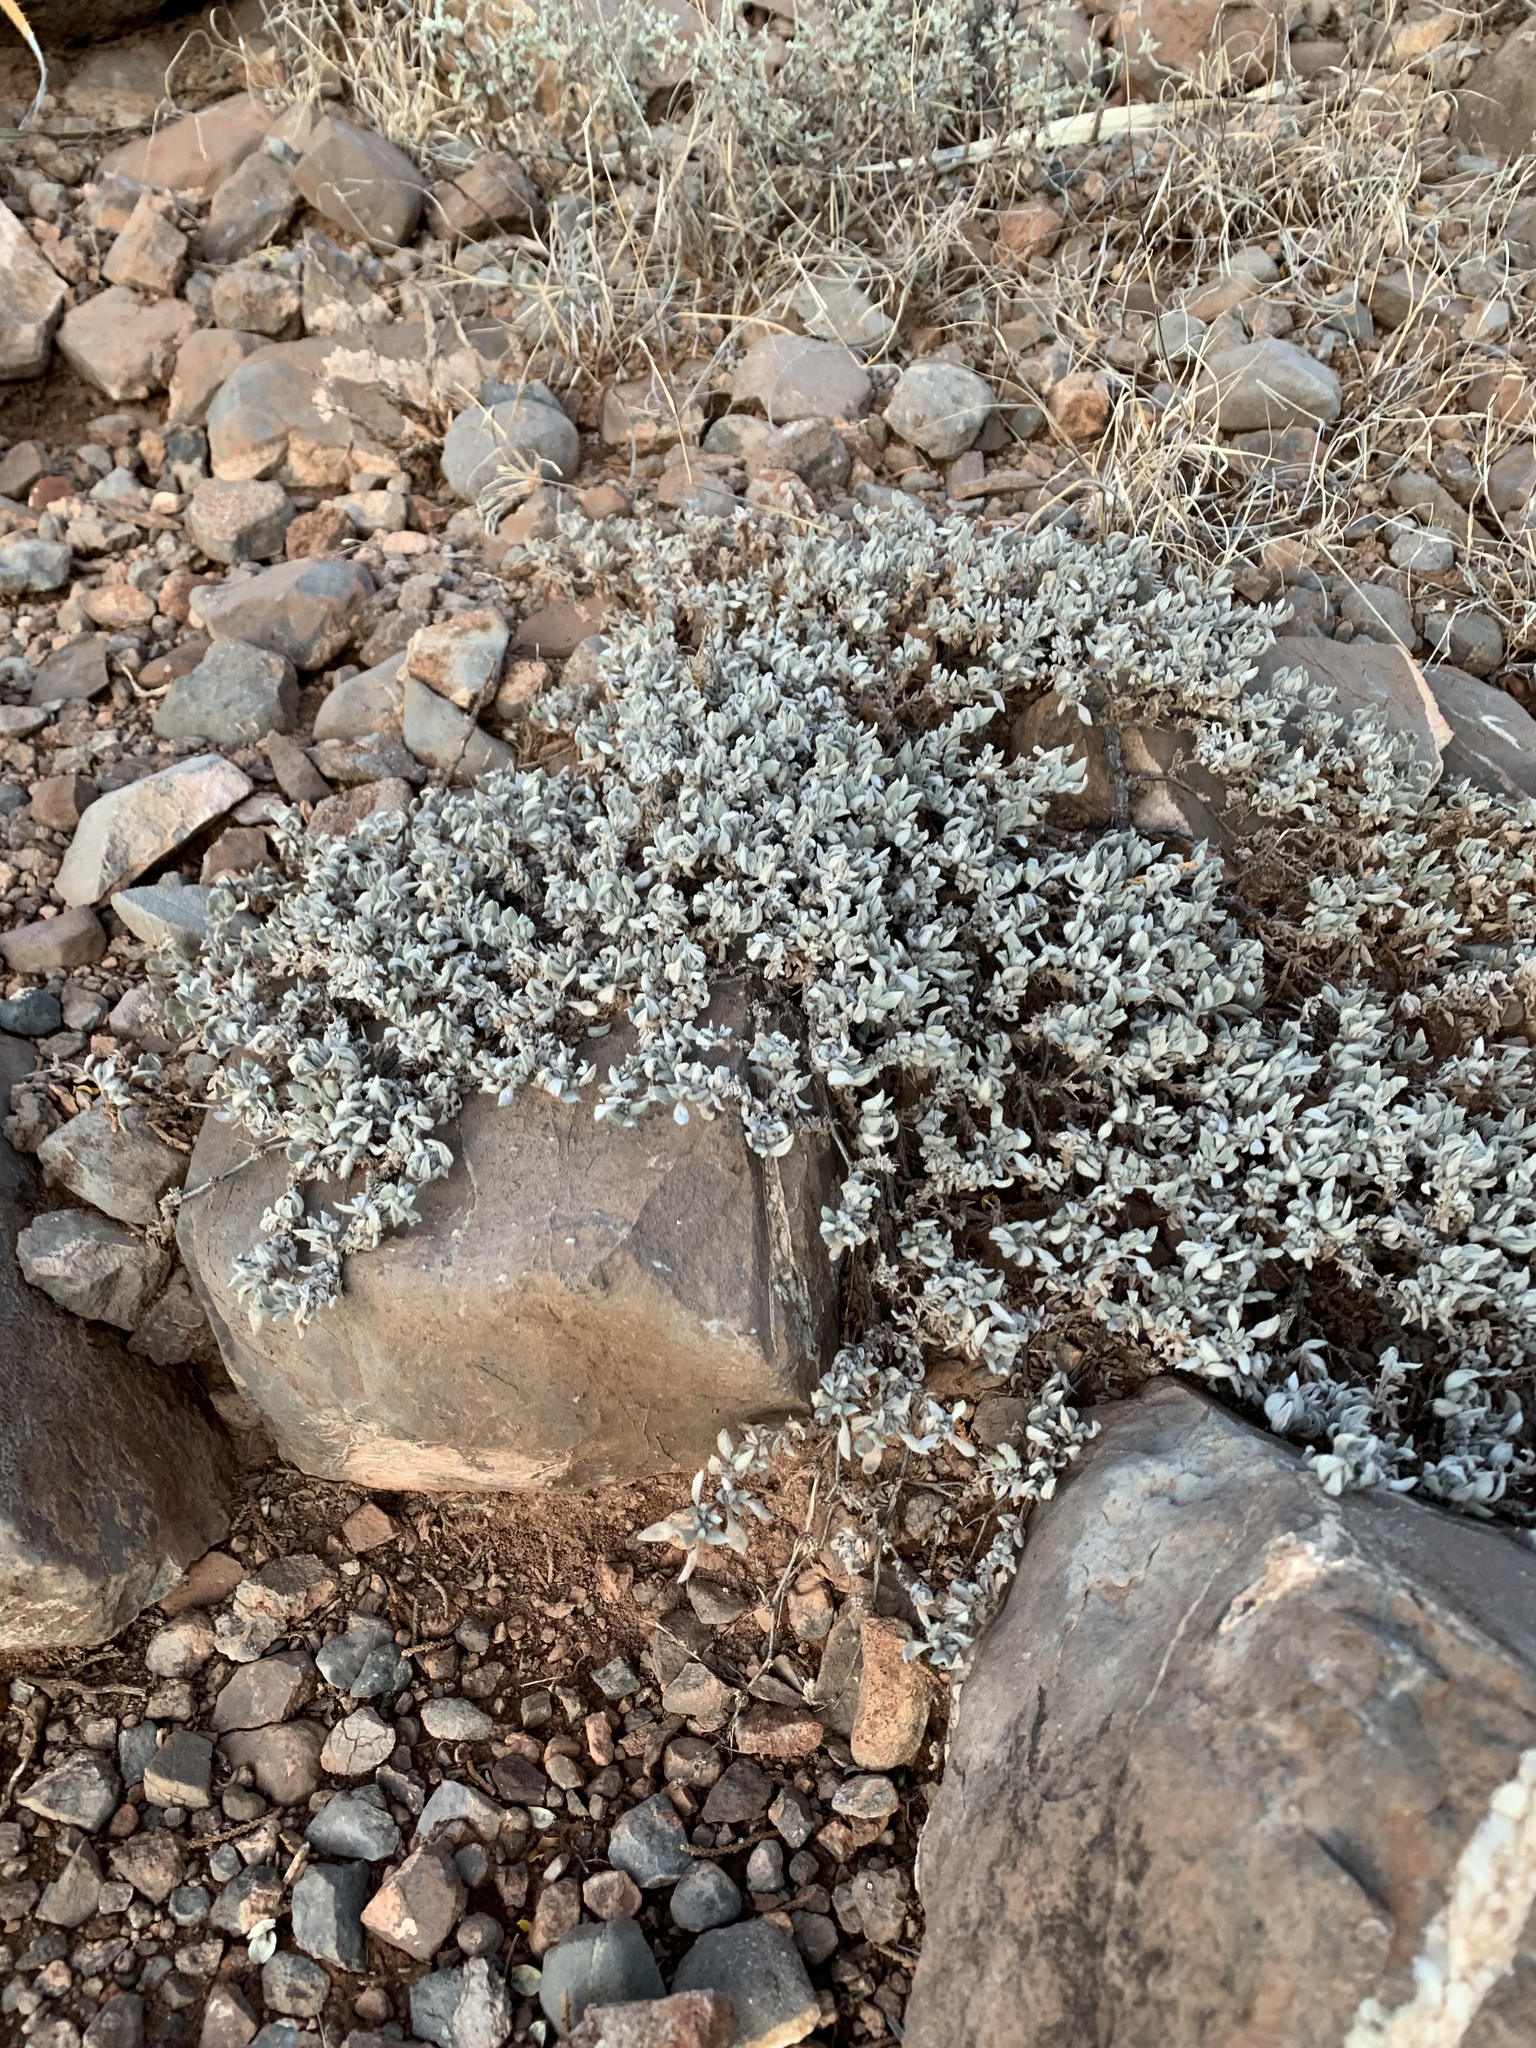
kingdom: Plantae
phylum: Tracheophyta
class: Magnoliopsida
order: Boraginales
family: Ehretiaceae
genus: Tiquilia
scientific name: Tiquilia canescens
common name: Hairy tiquilia
